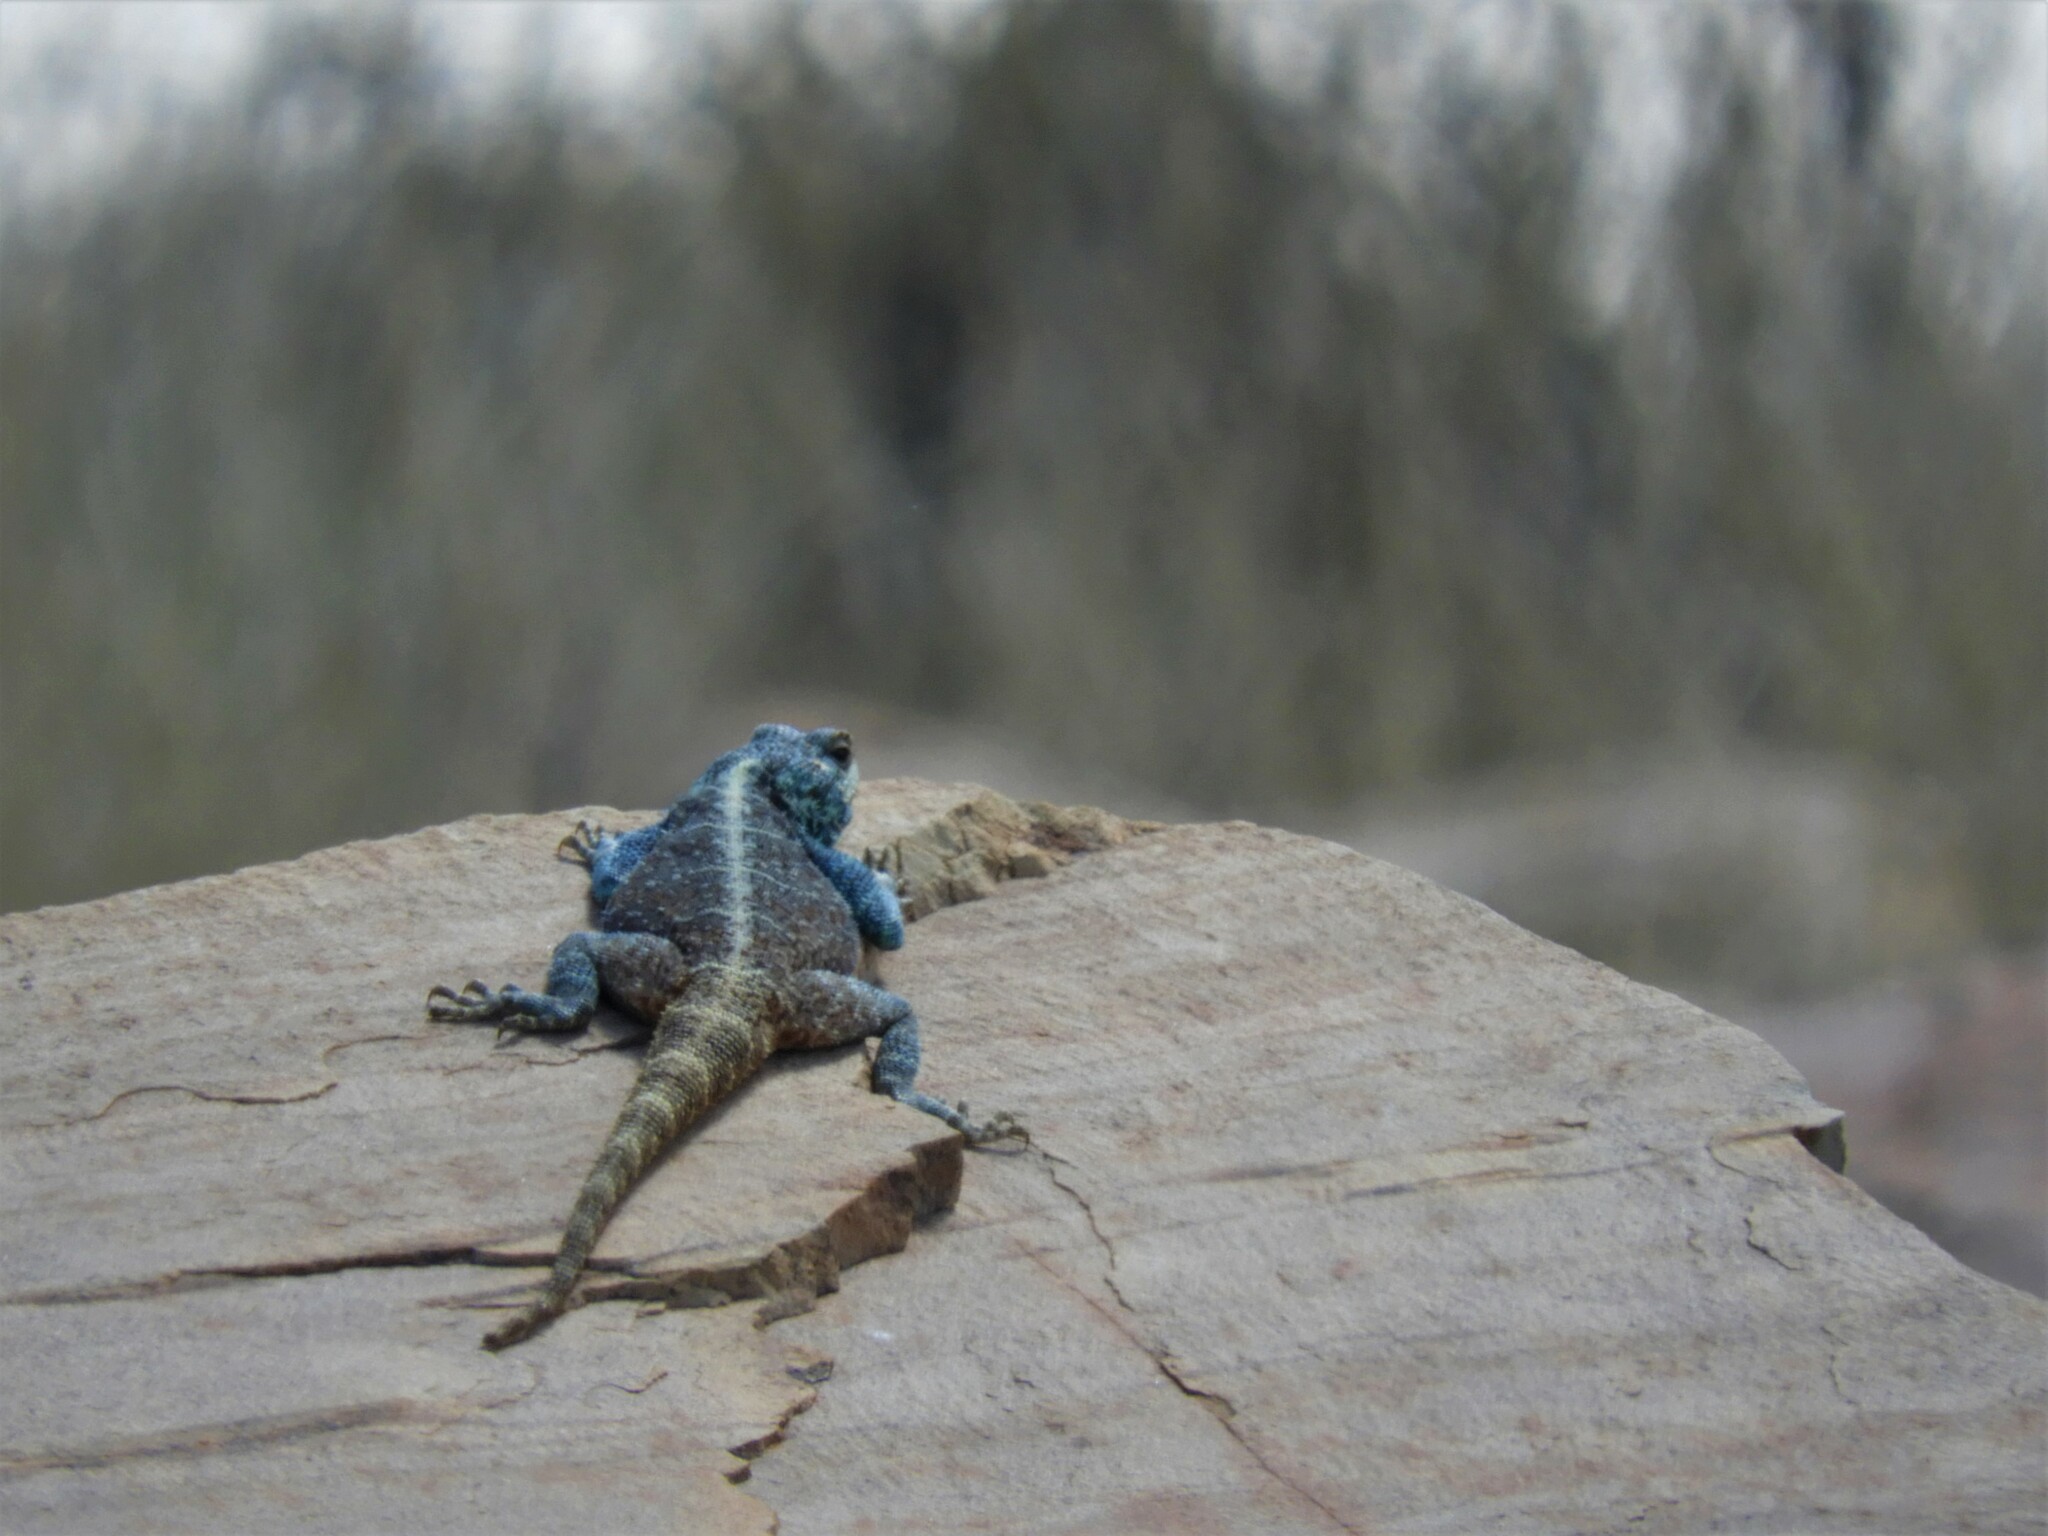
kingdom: Animalia
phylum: Chordata
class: Squamata
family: Agamidae
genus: Agama
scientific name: Agama atra
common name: Southern african rock agama
